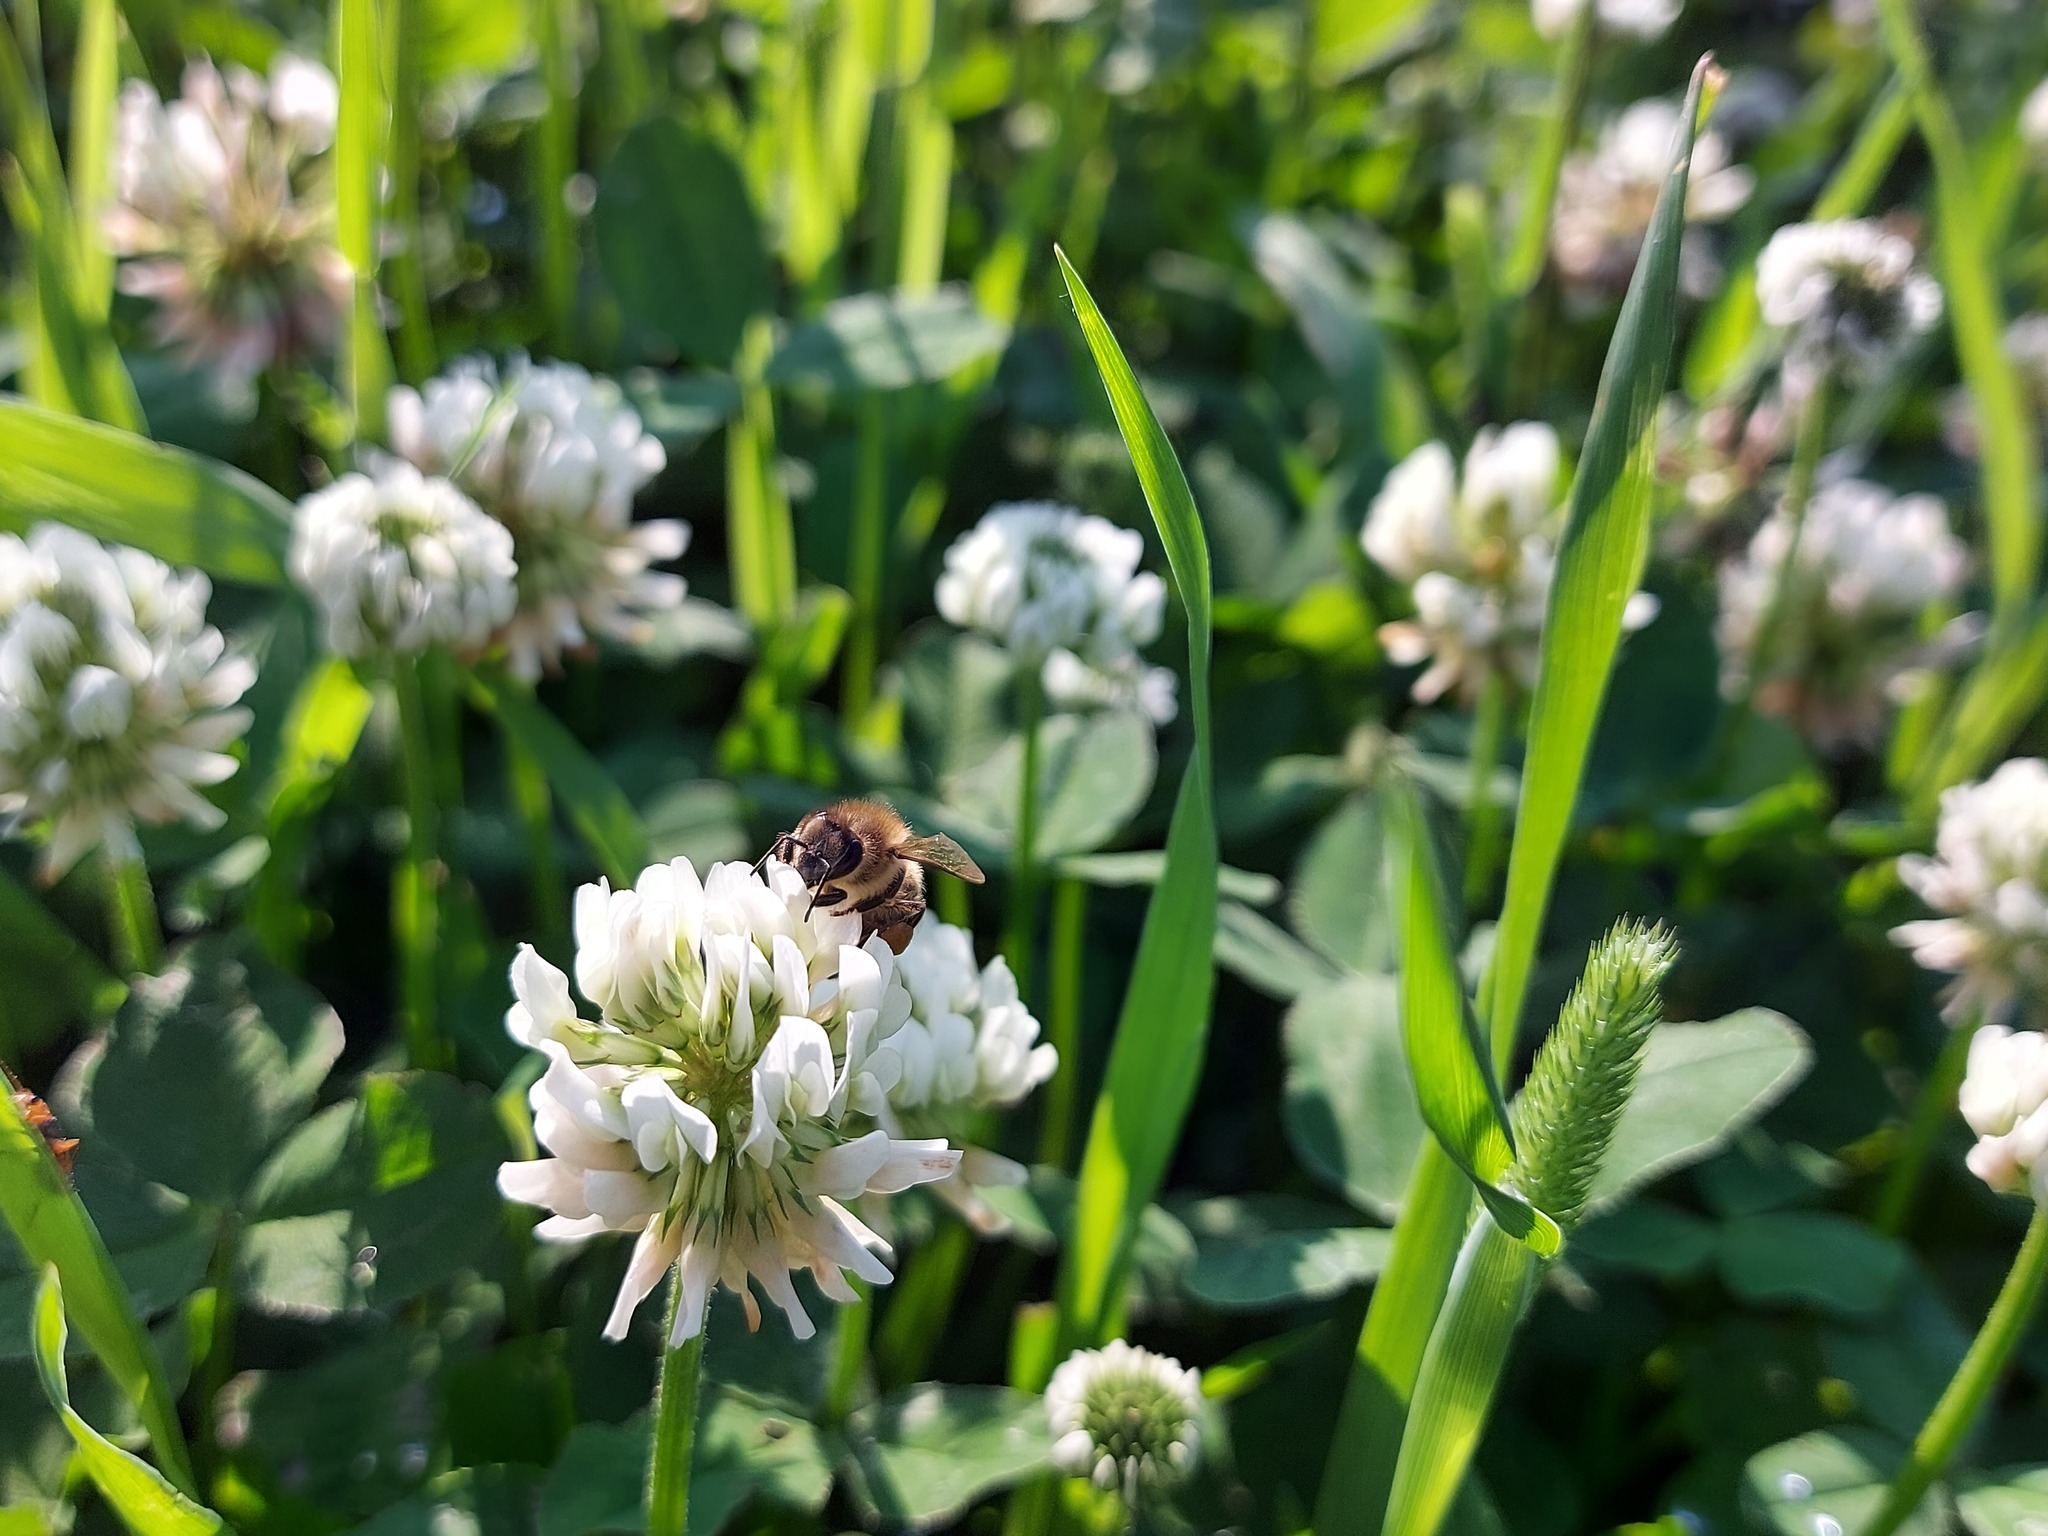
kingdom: Animalia
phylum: Arthropoda
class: Insecta
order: Hymenoptera
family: Apidae
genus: Apis
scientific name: Apis mellifera
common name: Honey bee
